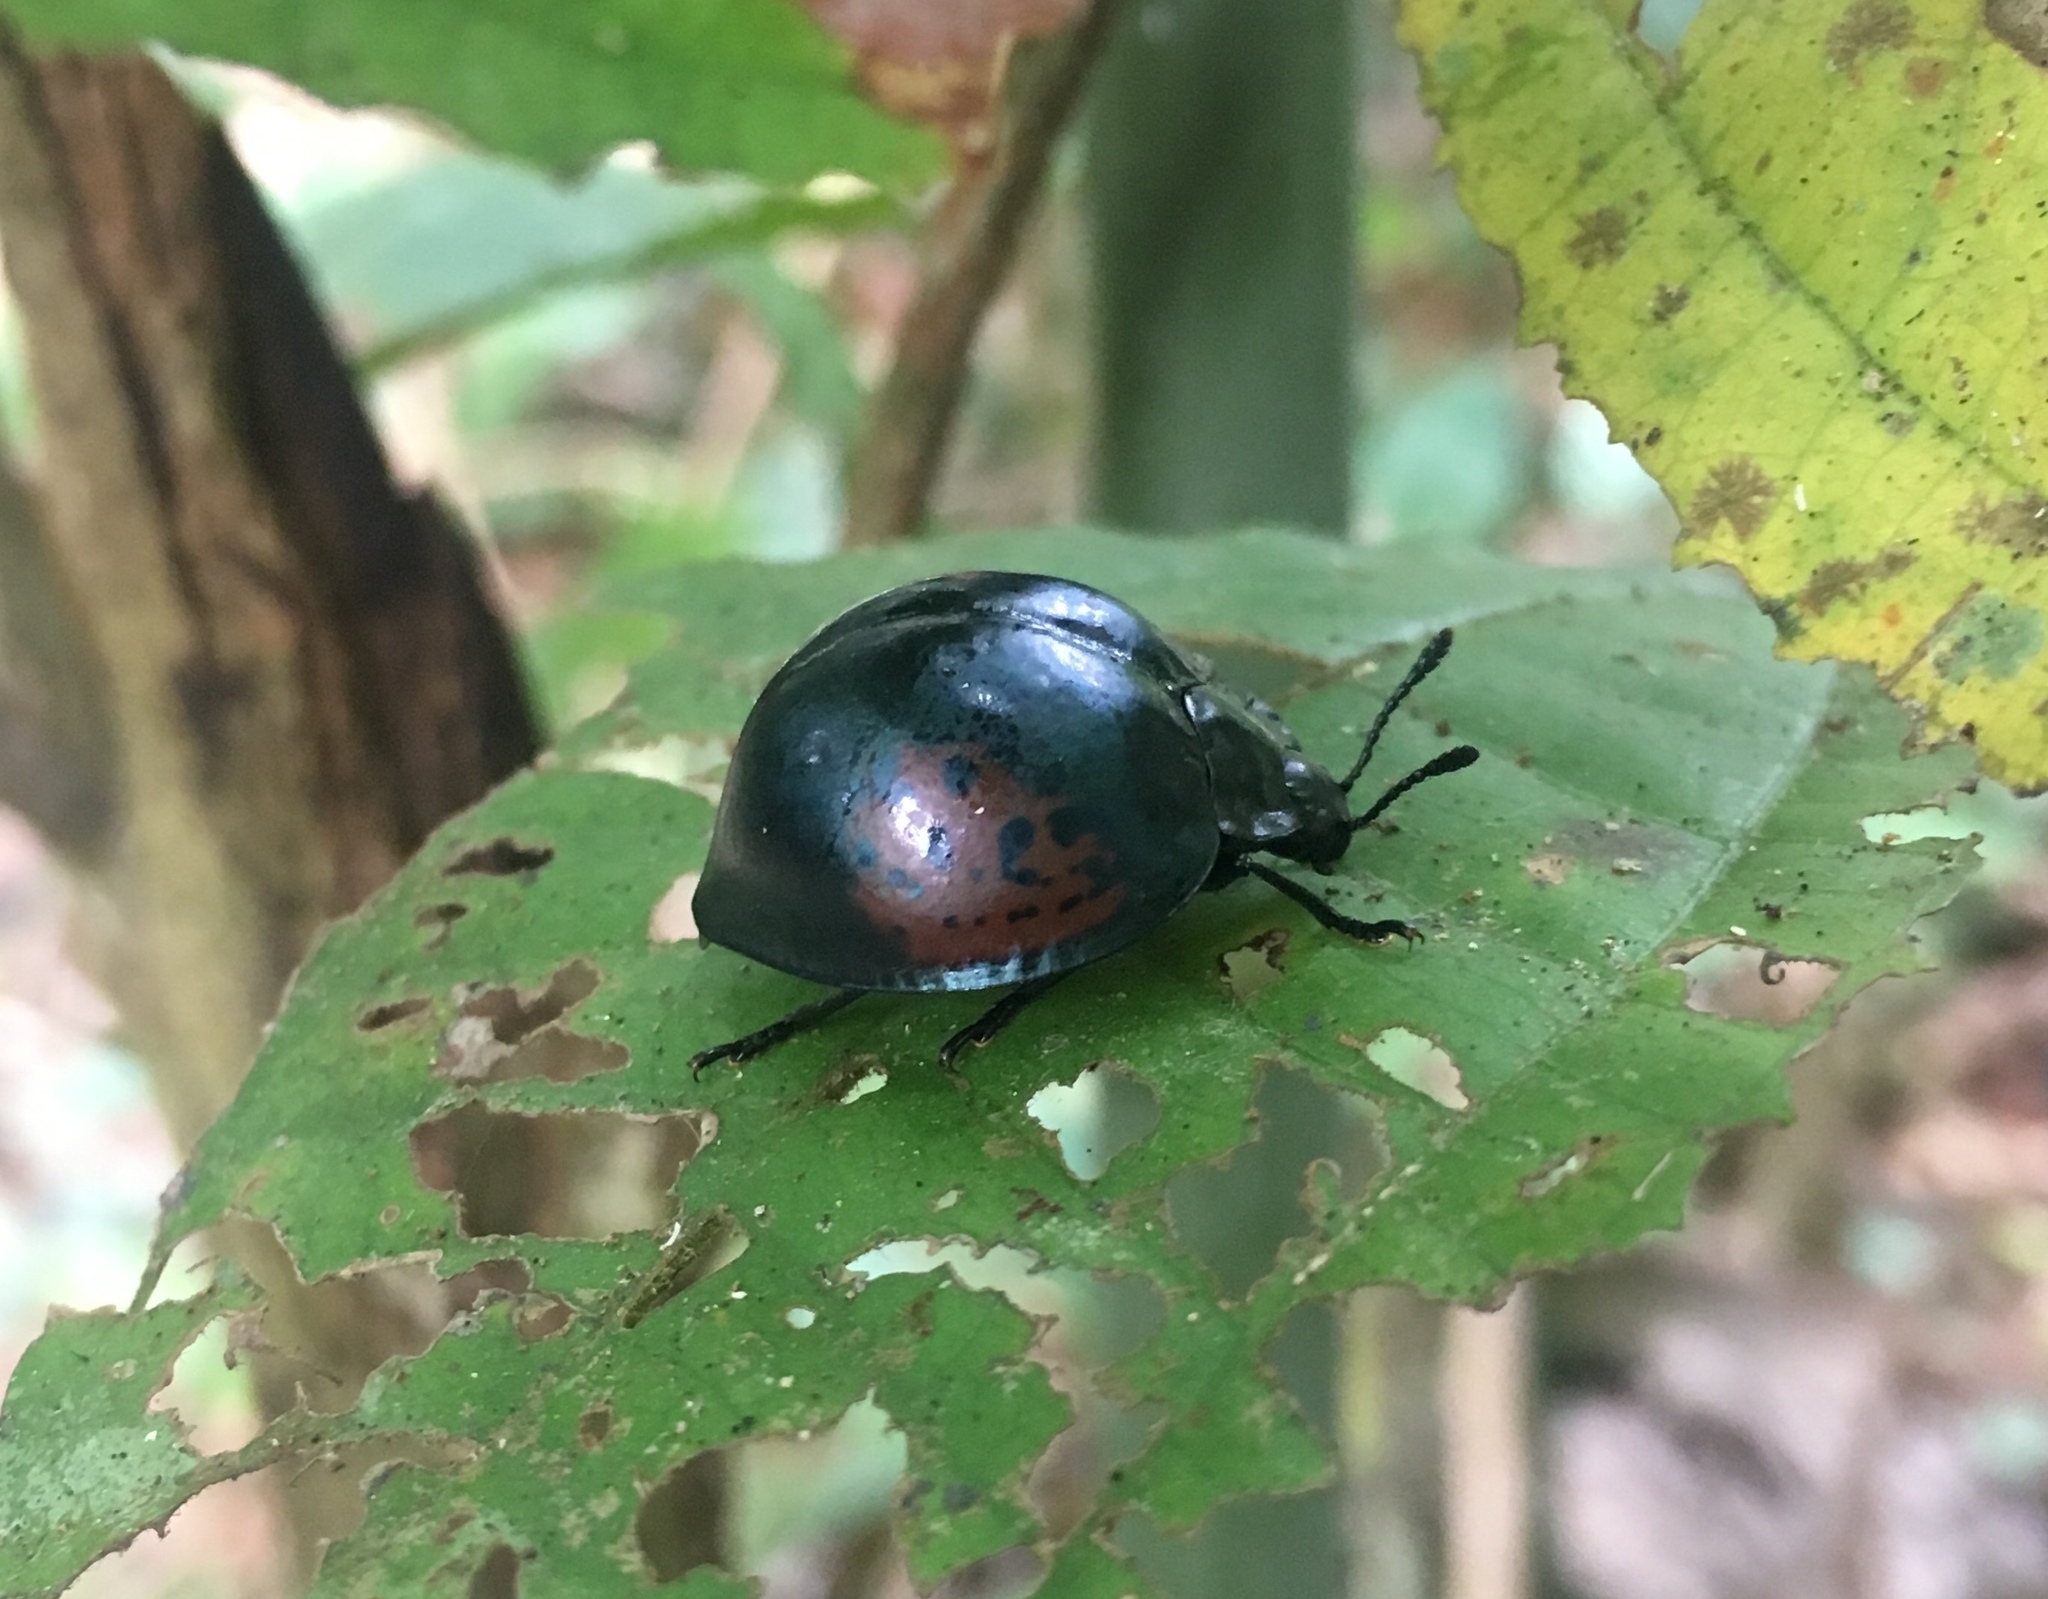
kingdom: Animalia
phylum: Arthropoda
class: Insecta
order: Coleoptera
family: Erotylidae
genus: Aegithus
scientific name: Aegithus
